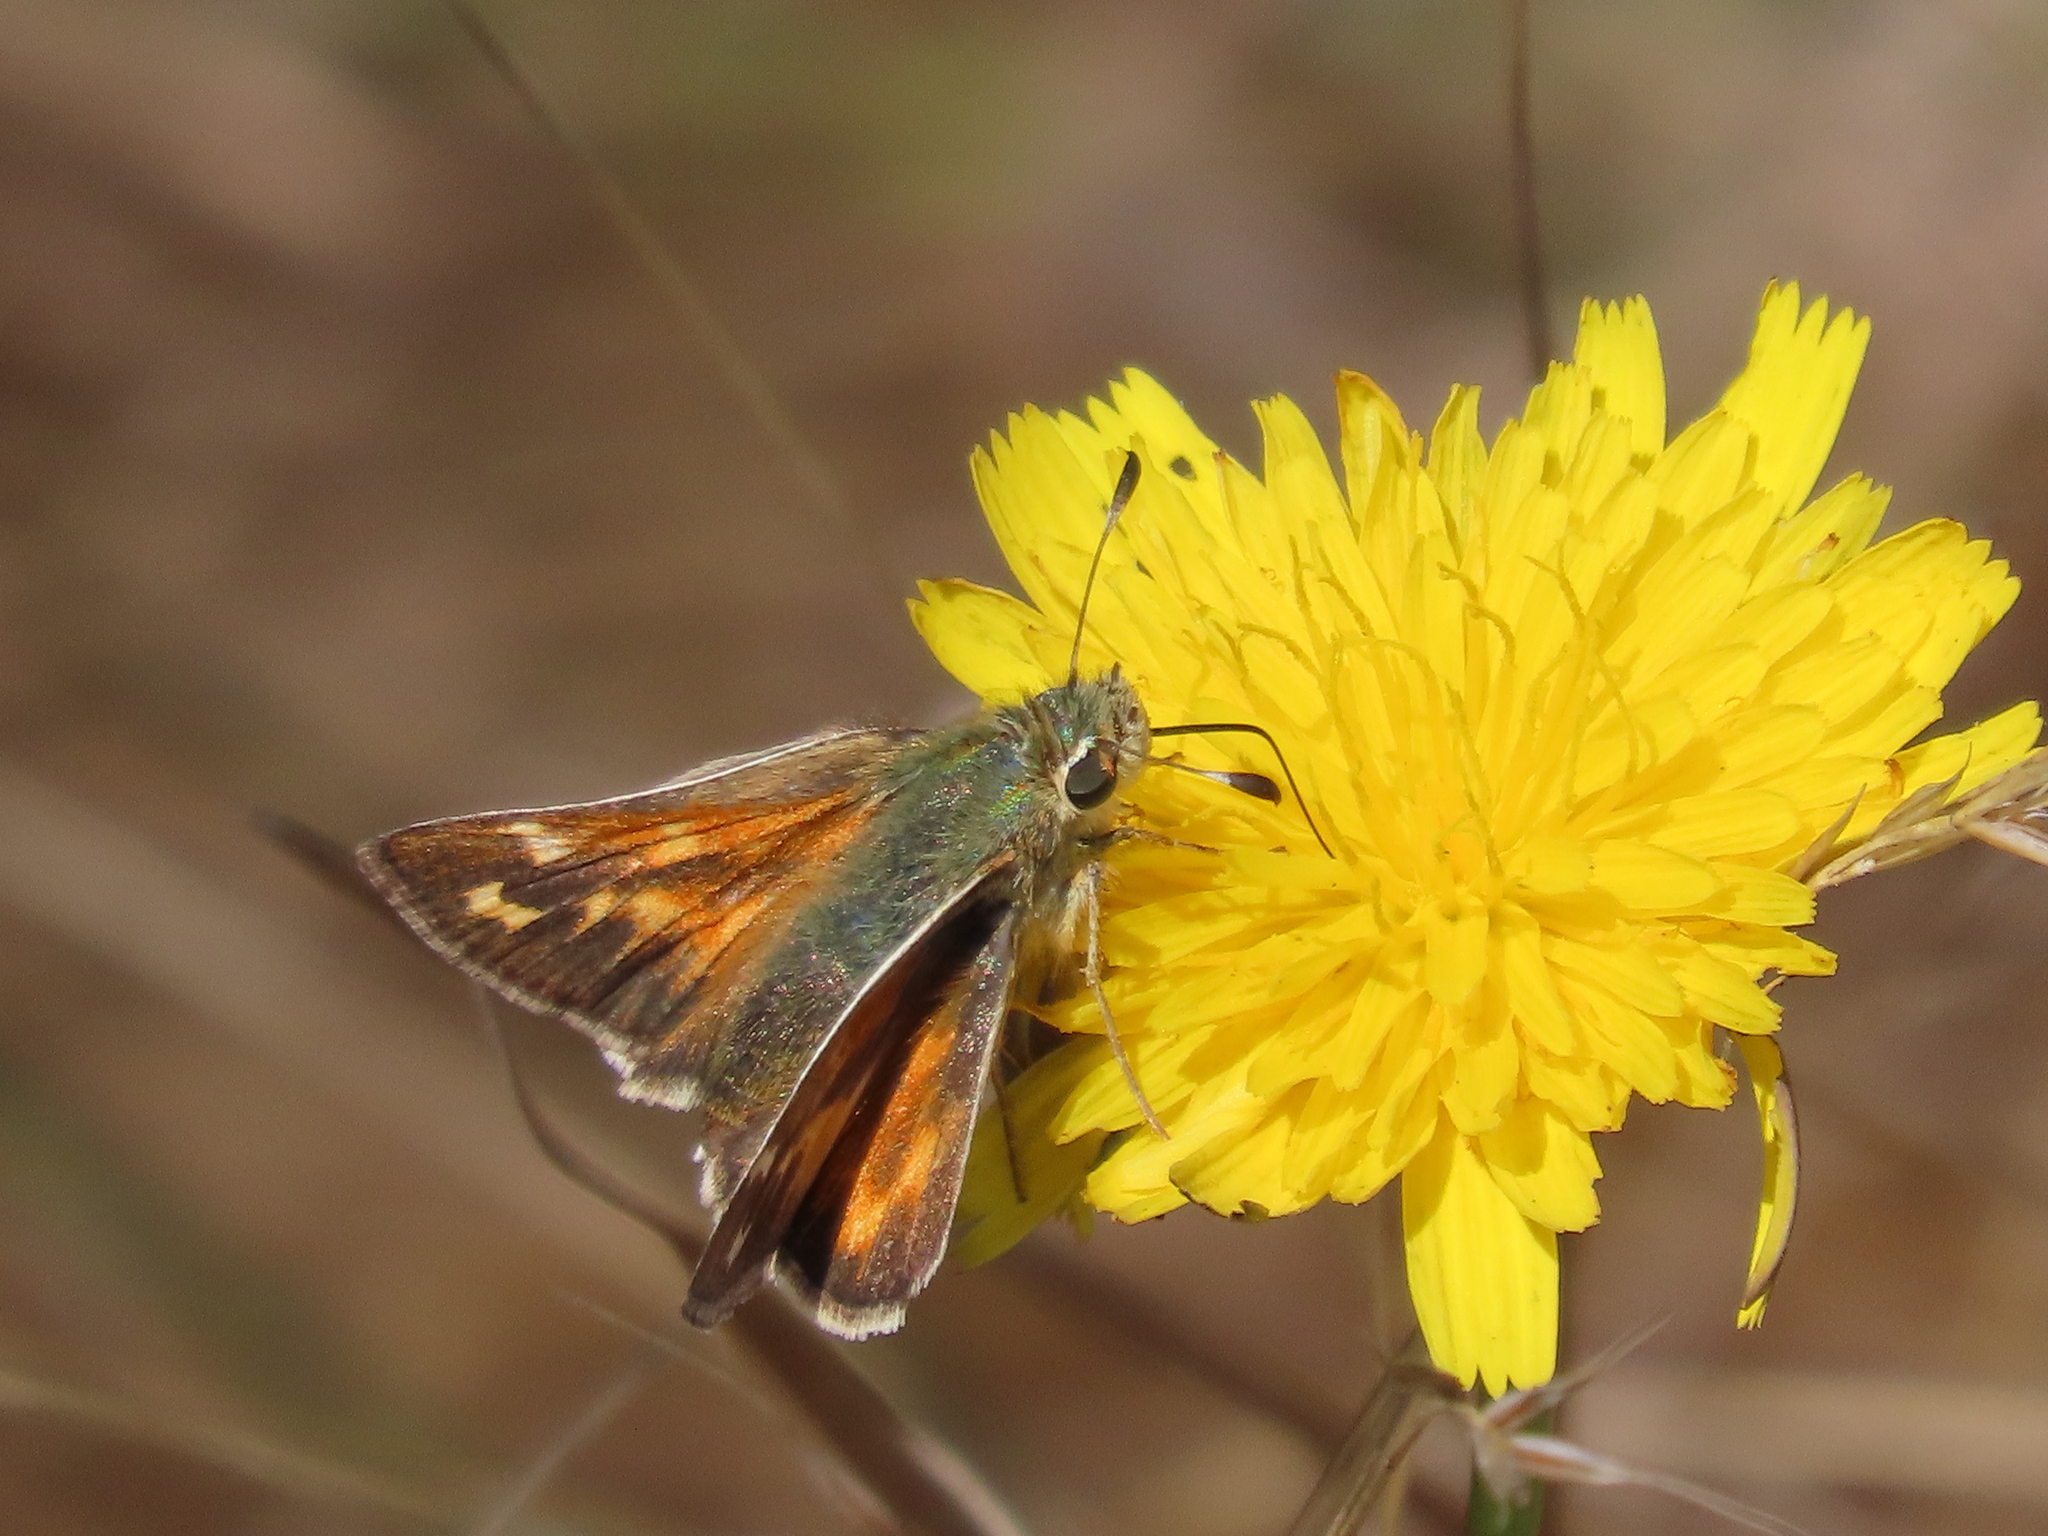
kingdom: Animalia
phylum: Arthropoda
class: Insecta
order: Lepidoptera
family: Hesperiidae
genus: Hesperia
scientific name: Hesperia harpalus
